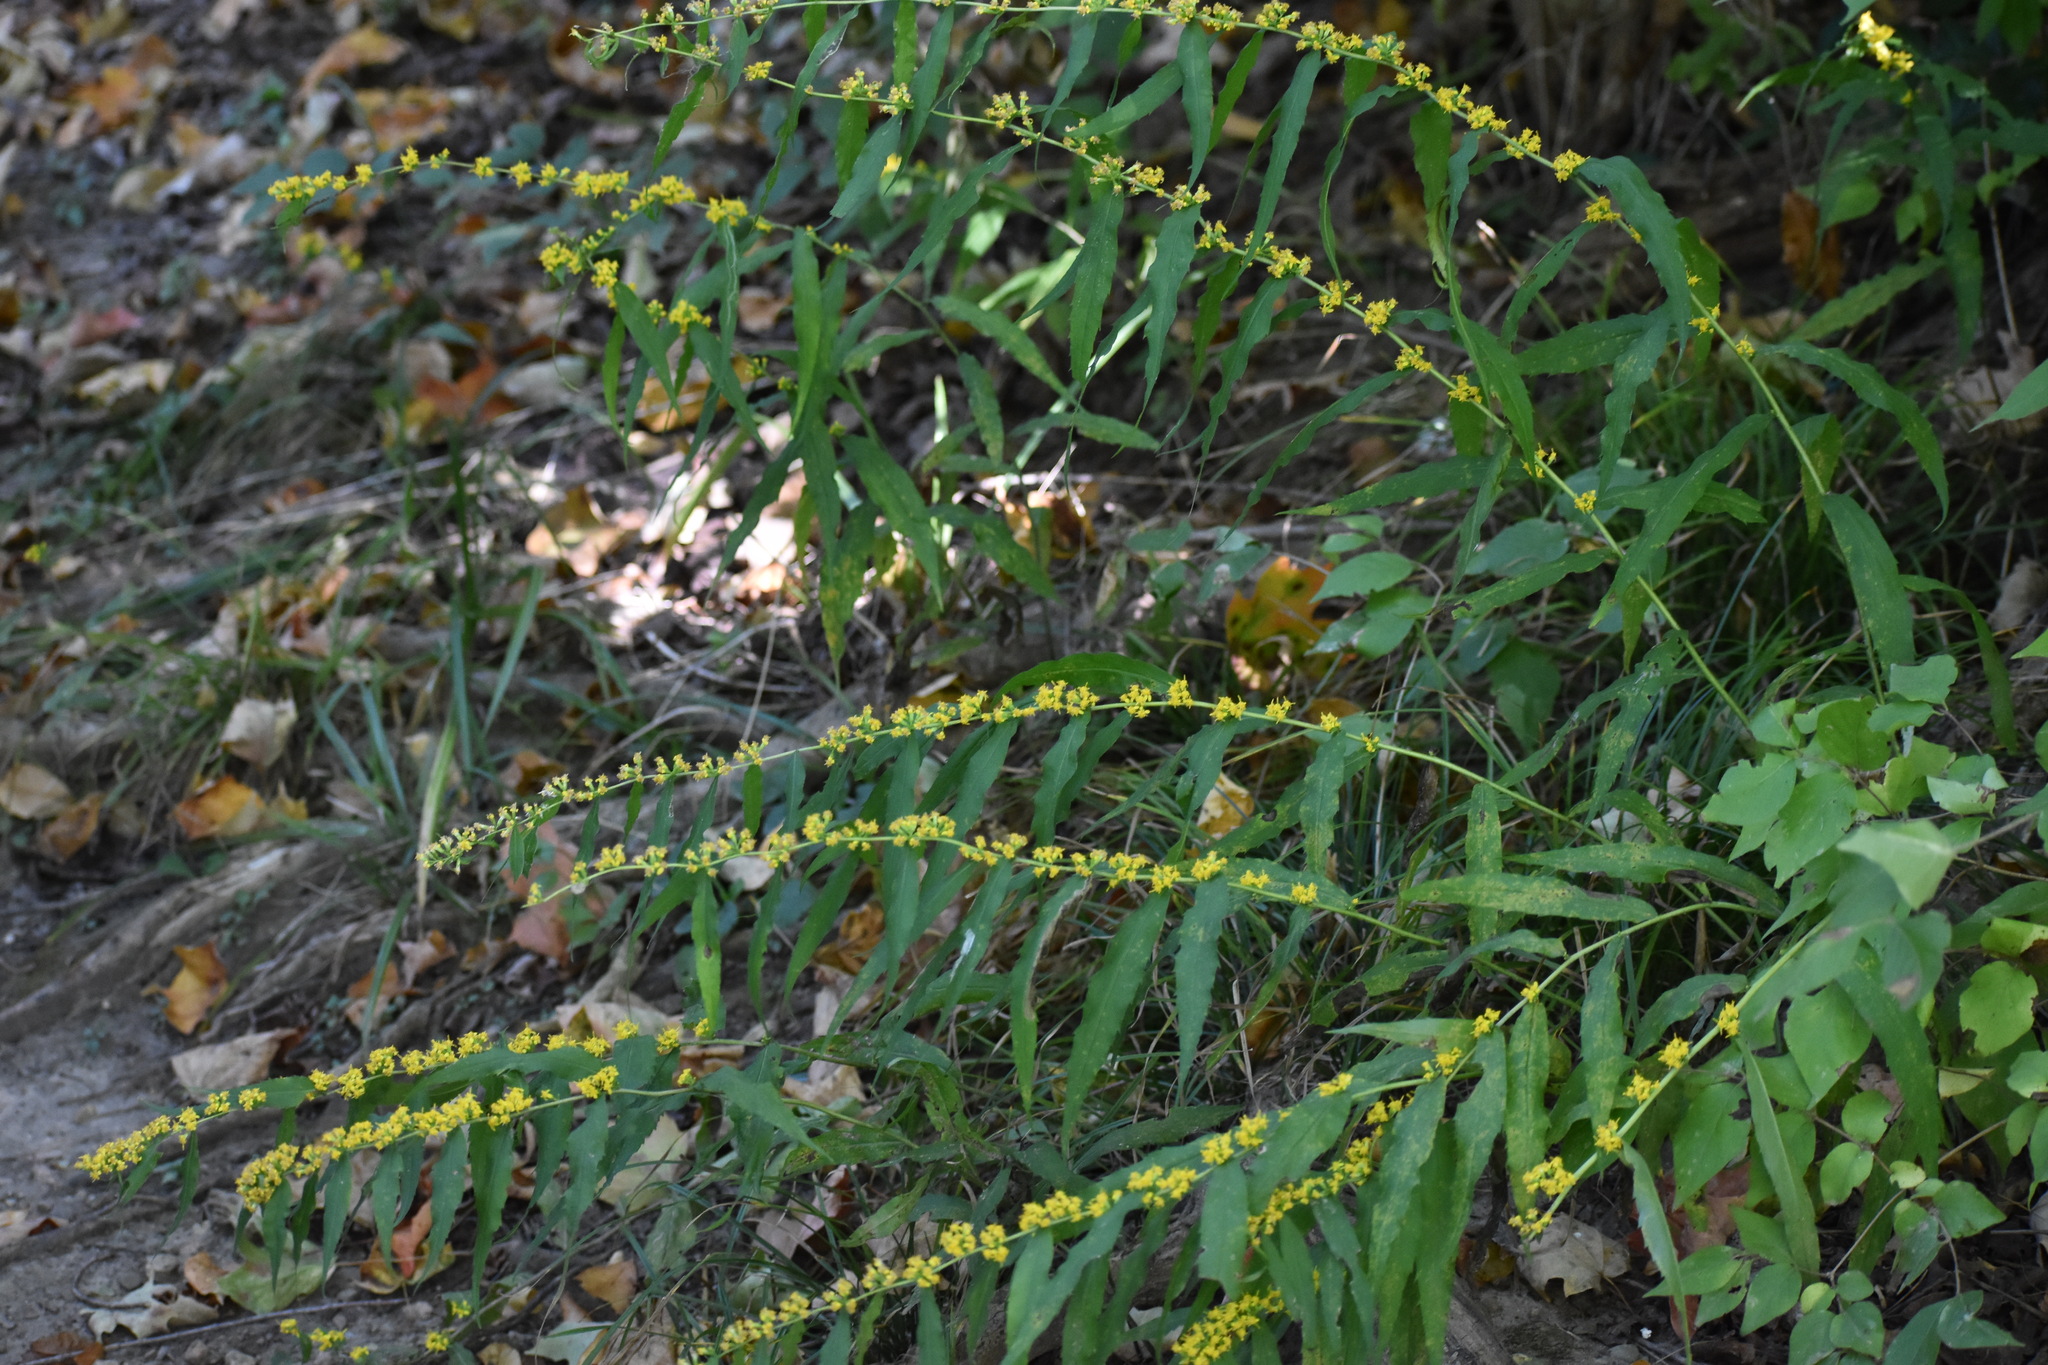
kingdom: Plantae
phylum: Tracheophyta
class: Magnoliopsida
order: Asterales
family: Asteraceae
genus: Solidago
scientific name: Solidago caesia
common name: Woodland goldenrod
